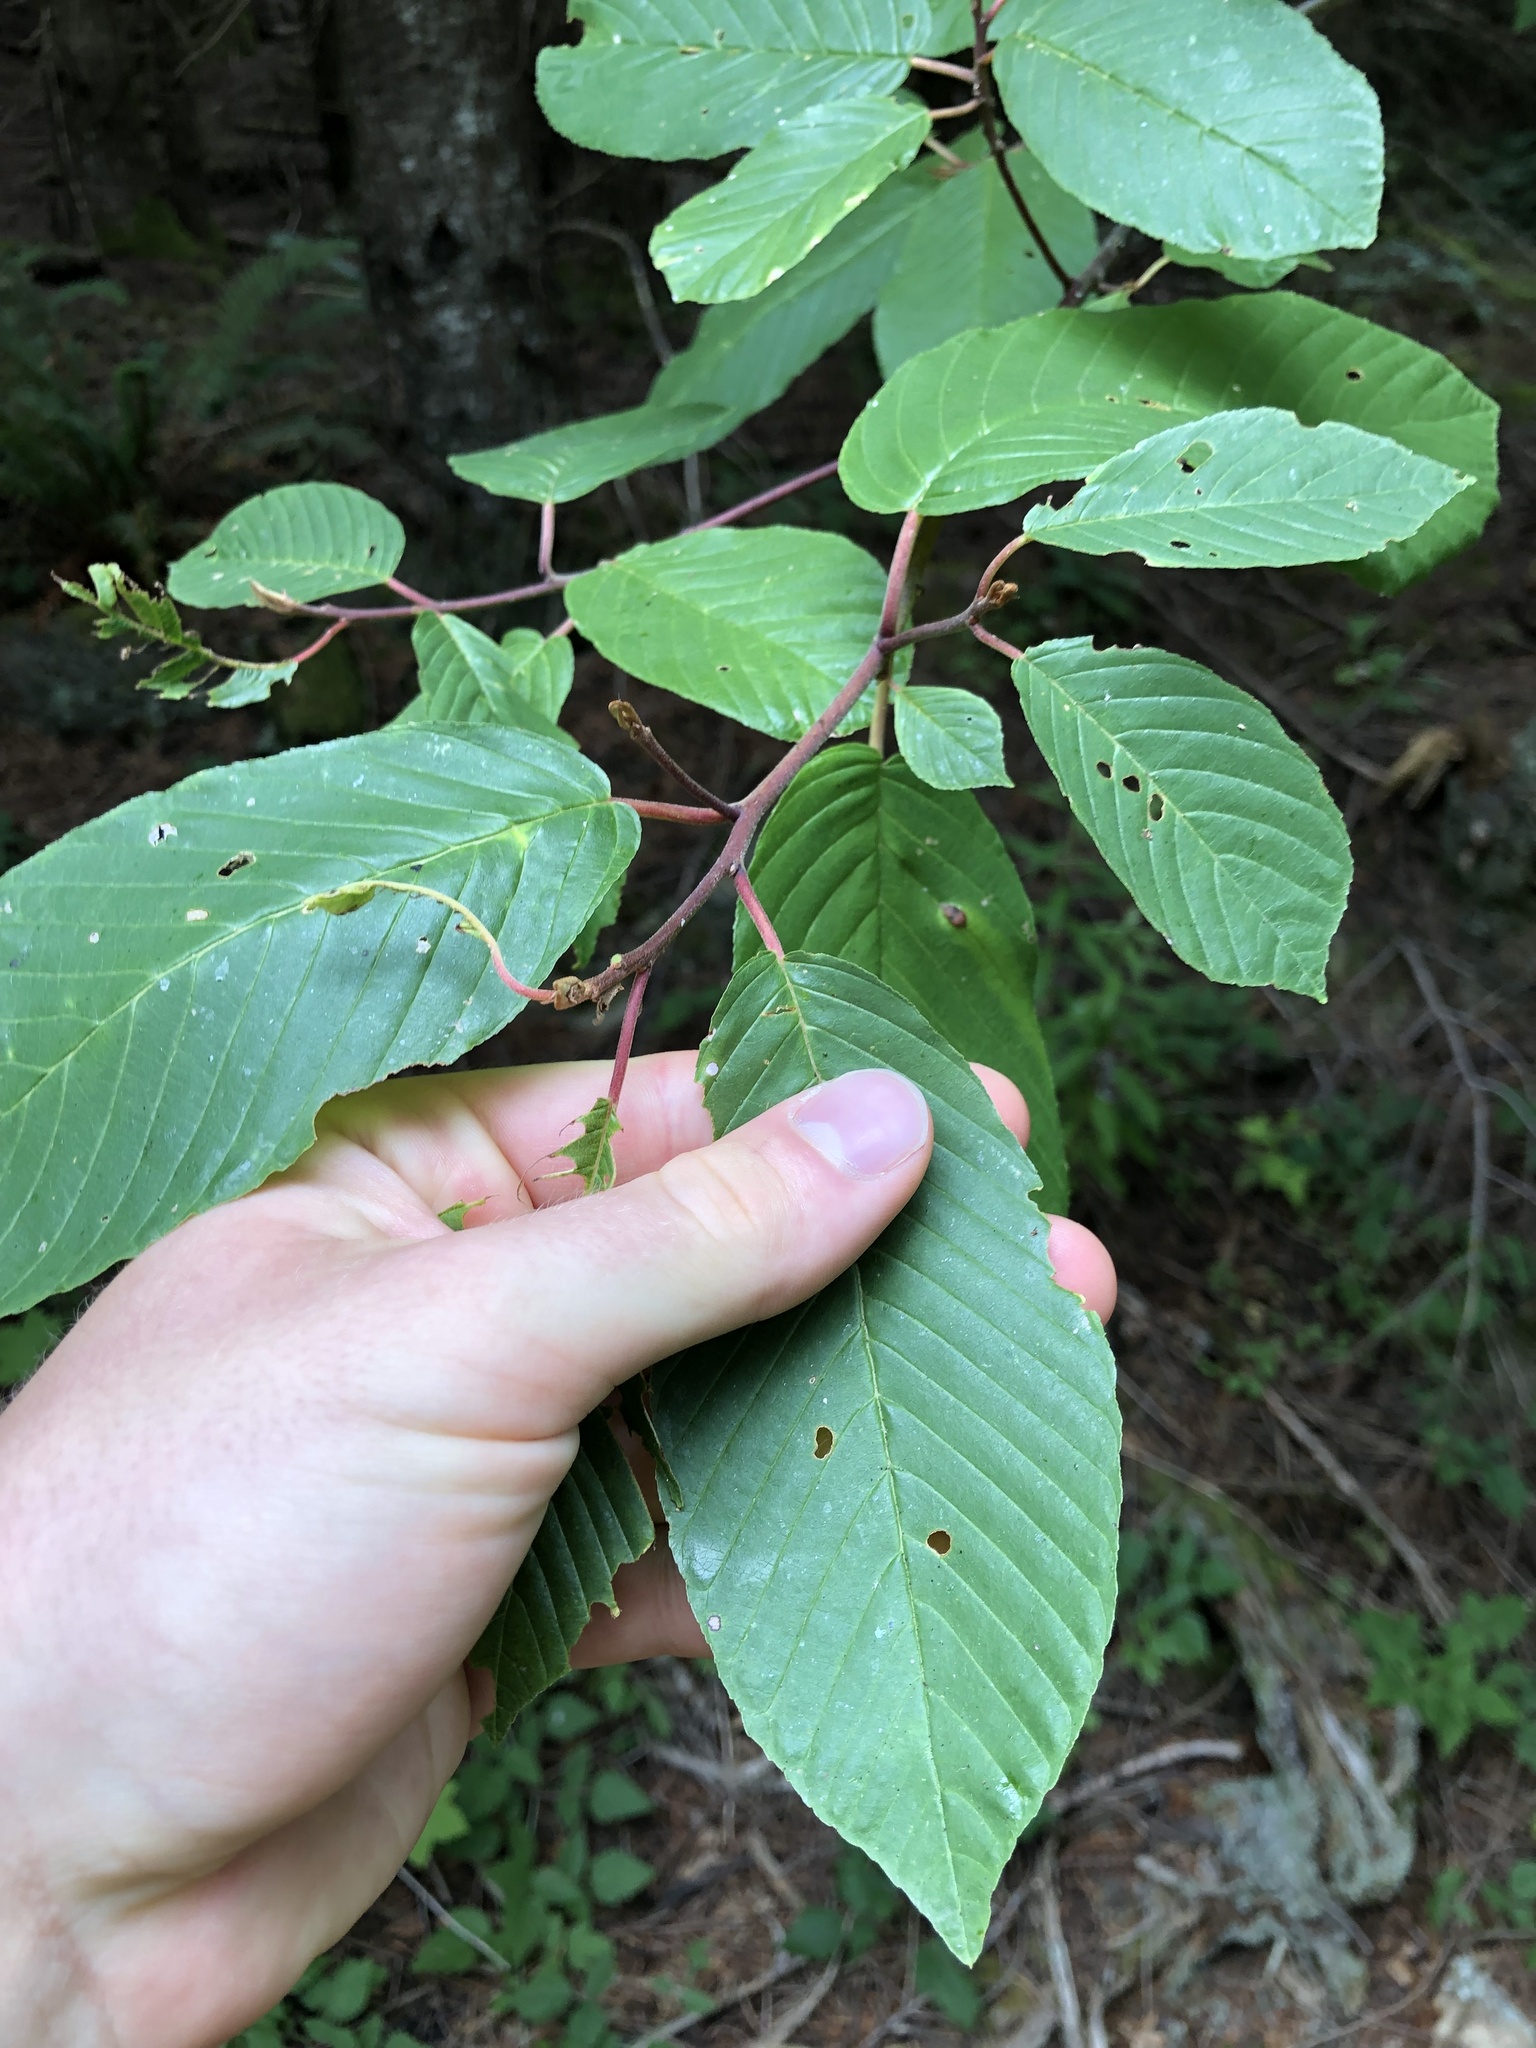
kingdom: Plantae
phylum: Tracheophyta
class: Magnoliopsida
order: Rosales
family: Rhamnaceae
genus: Frangula
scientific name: Frangula purshiana
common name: Cascara buckthorn
